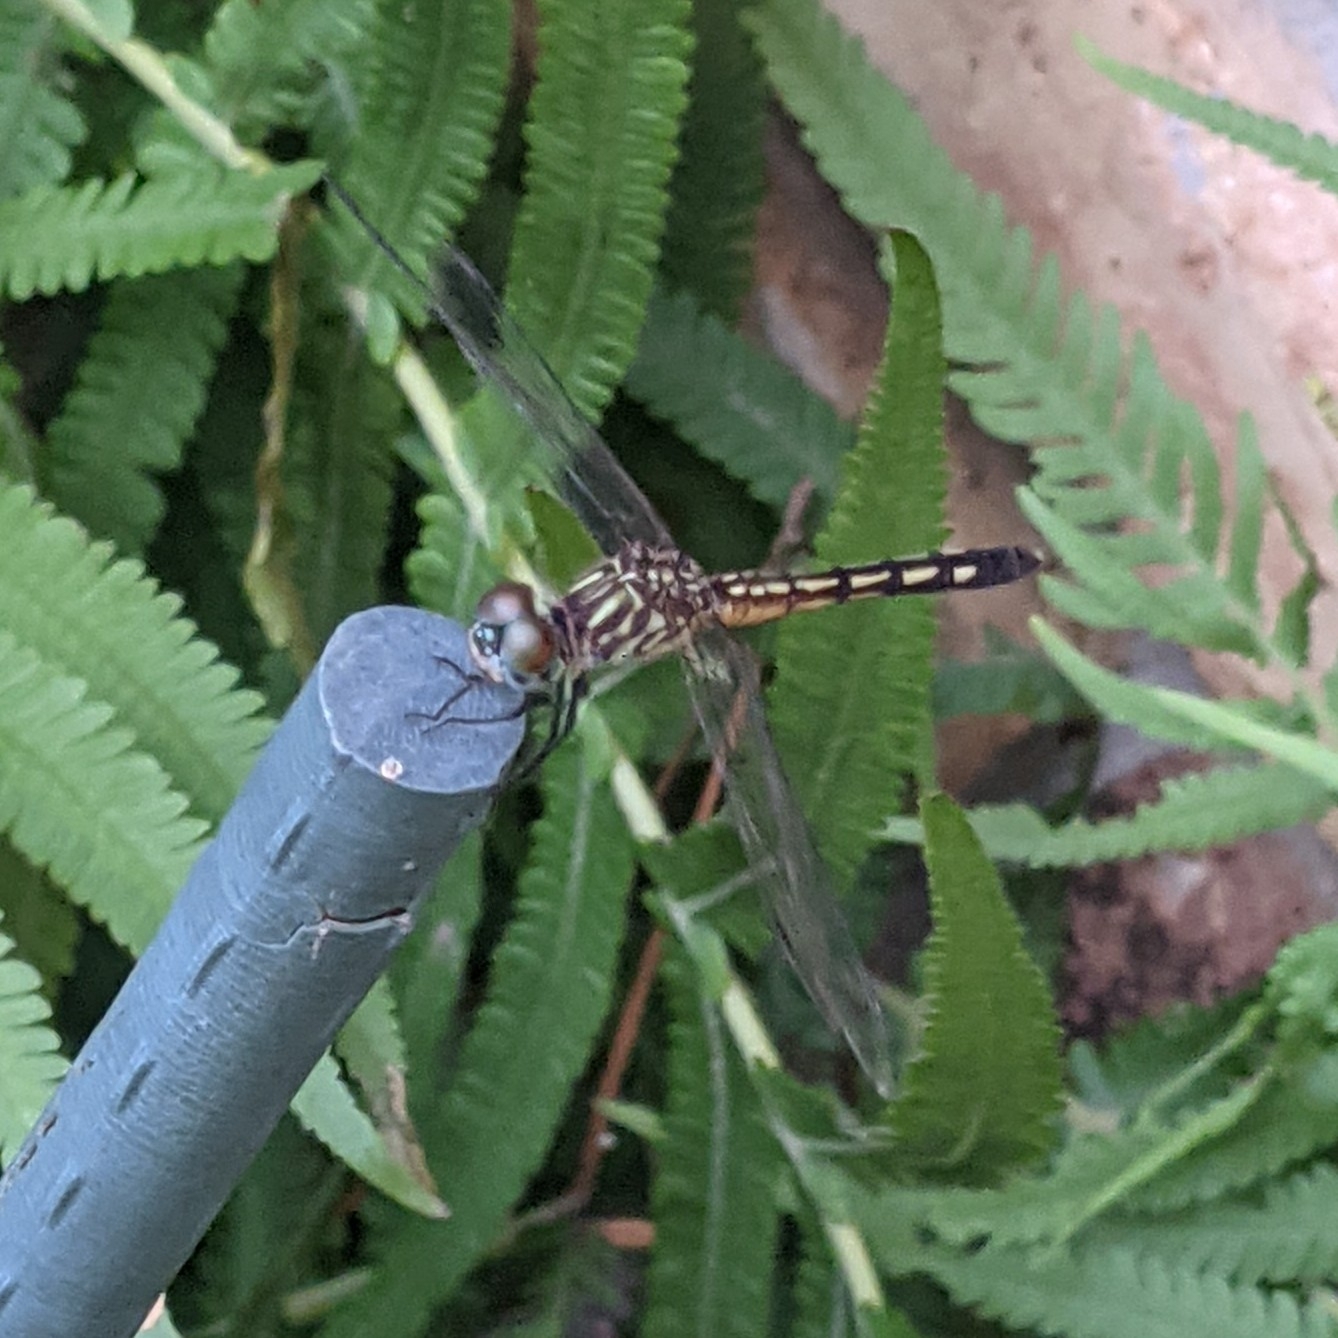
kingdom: Animalia
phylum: Arthropoda
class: Insecta
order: Odonata
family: Libellulidae
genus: Pachydiplax
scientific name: Pachydiplax longipennis
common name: Blue dasher
